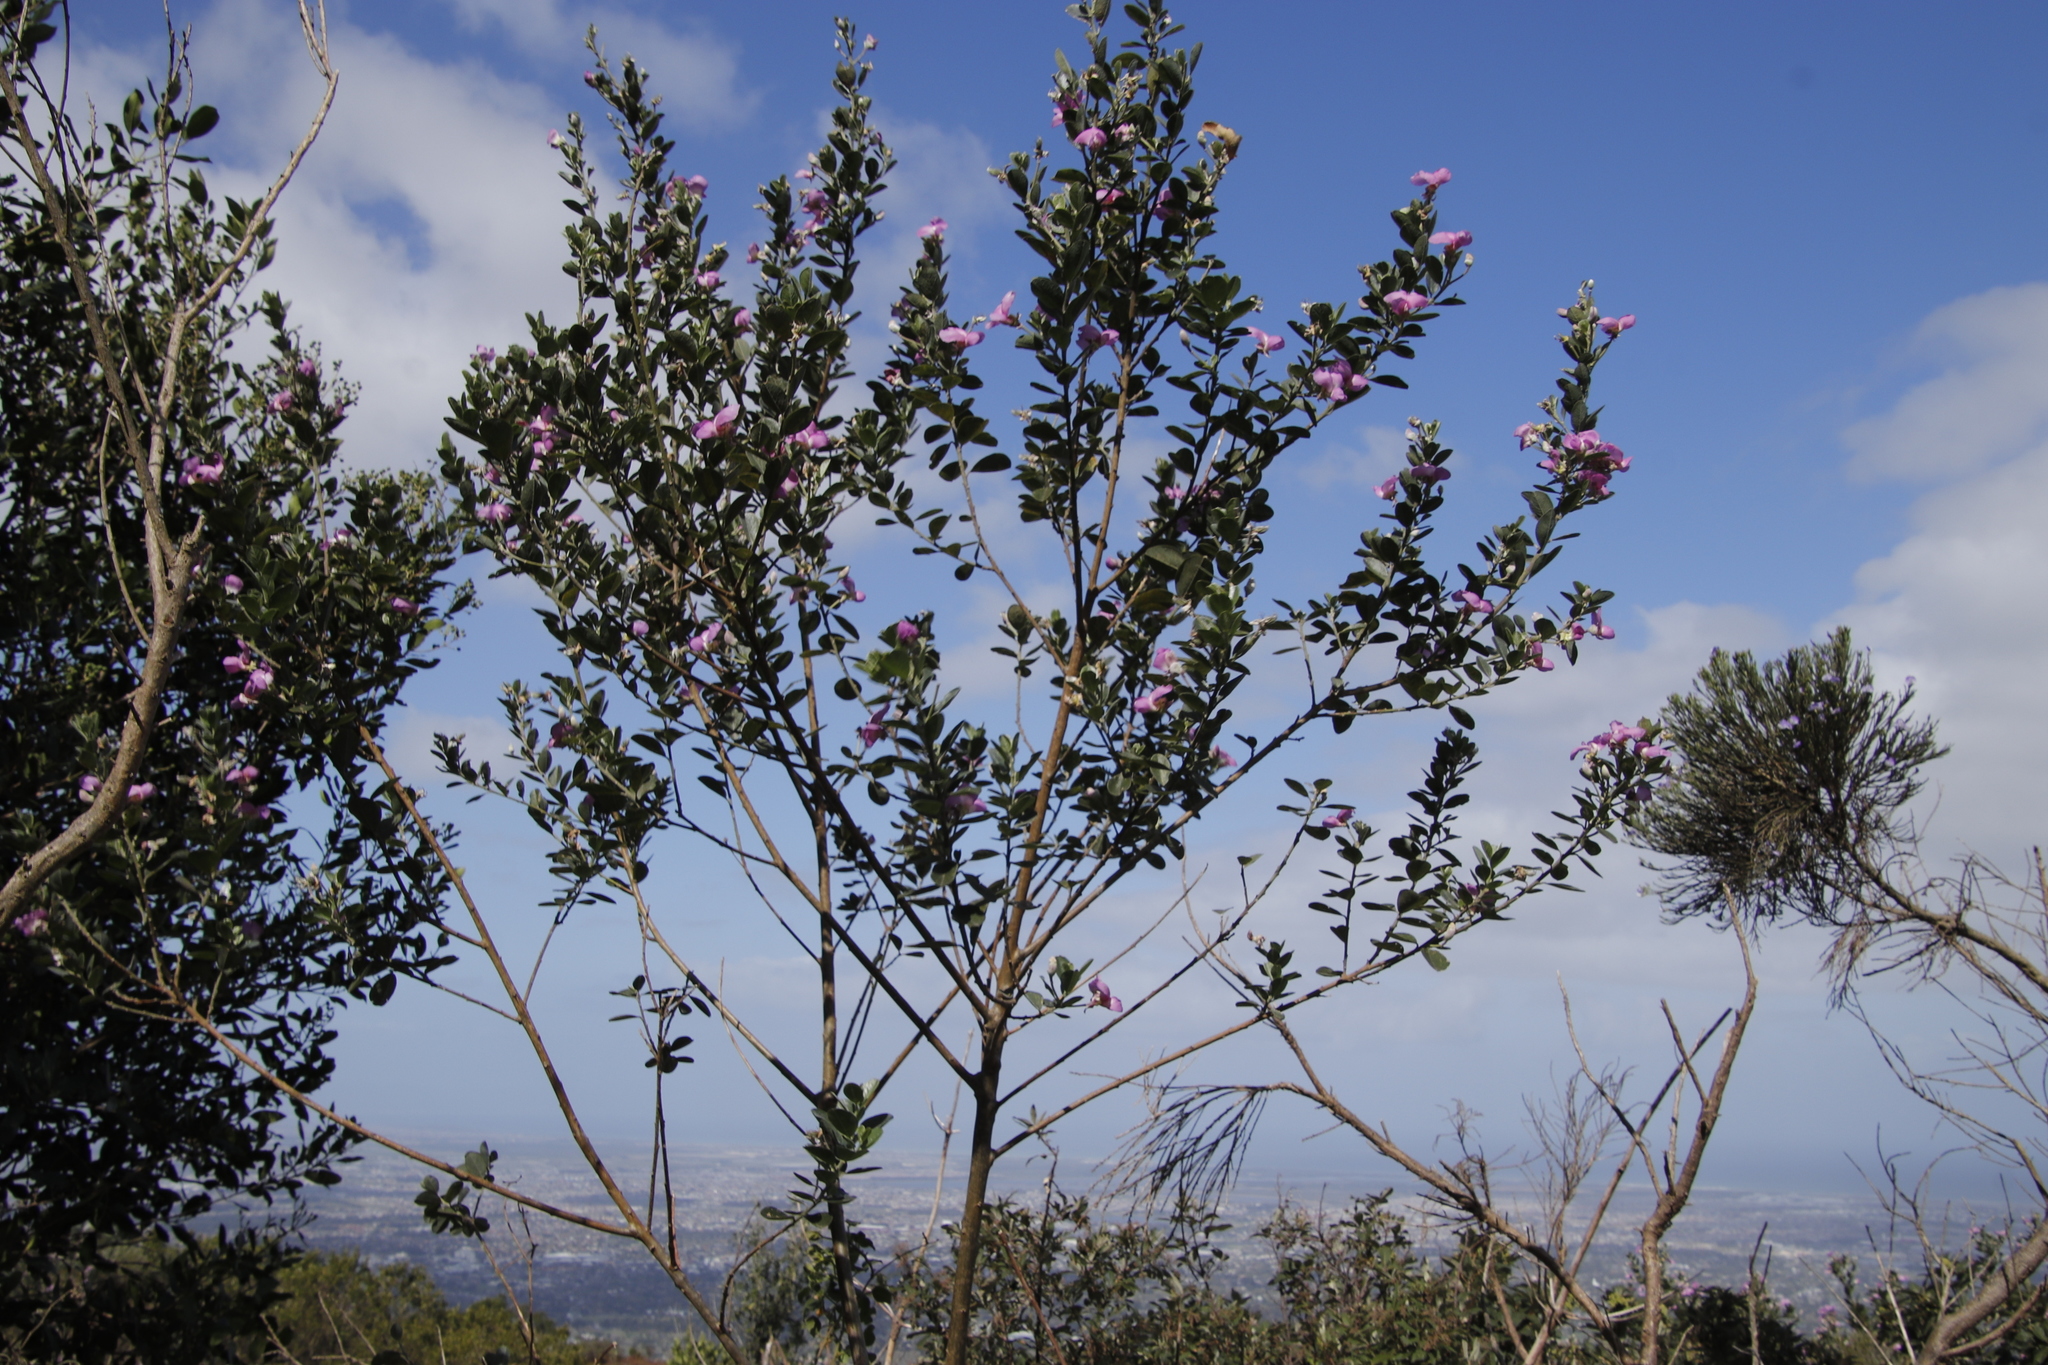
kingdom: Plantae
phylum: Tracheophyta
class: Magnoliopsida
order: Fabales
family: Fabaceae
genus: Podalyria
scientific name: Podalyria calyptrata
